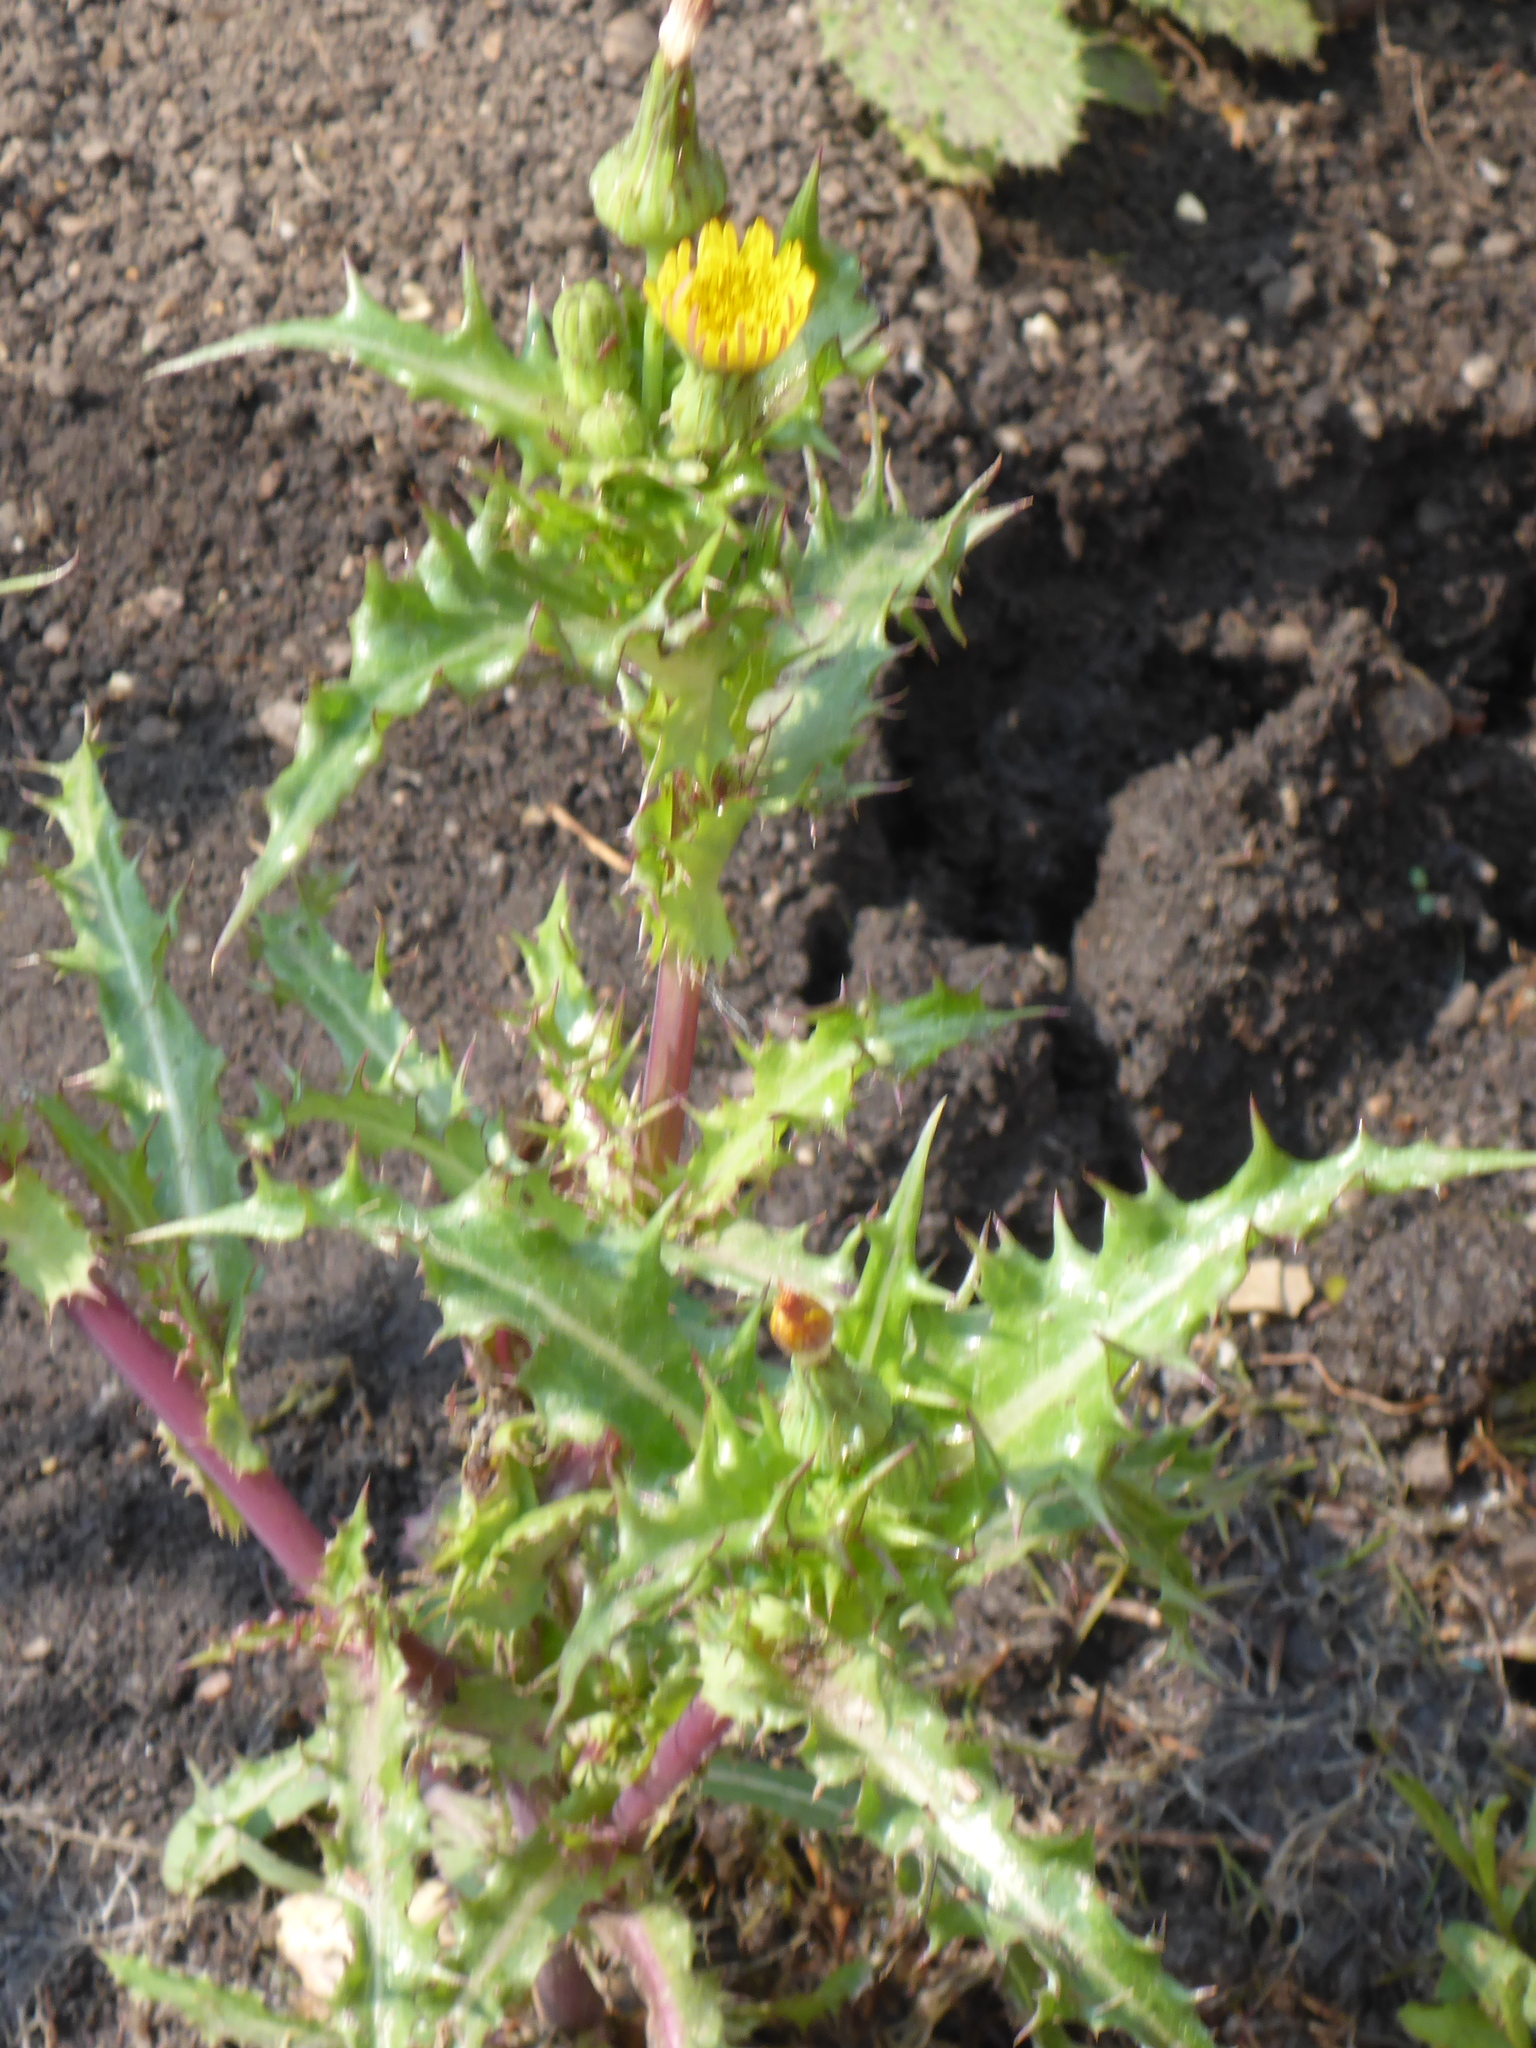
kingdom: Plantae
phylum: Tracheophyta
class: Magnoliopsida
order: Asterales
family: Asteraceae
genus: Sonchus
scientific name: Sonchus asper
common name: Prickly sow-thistle
